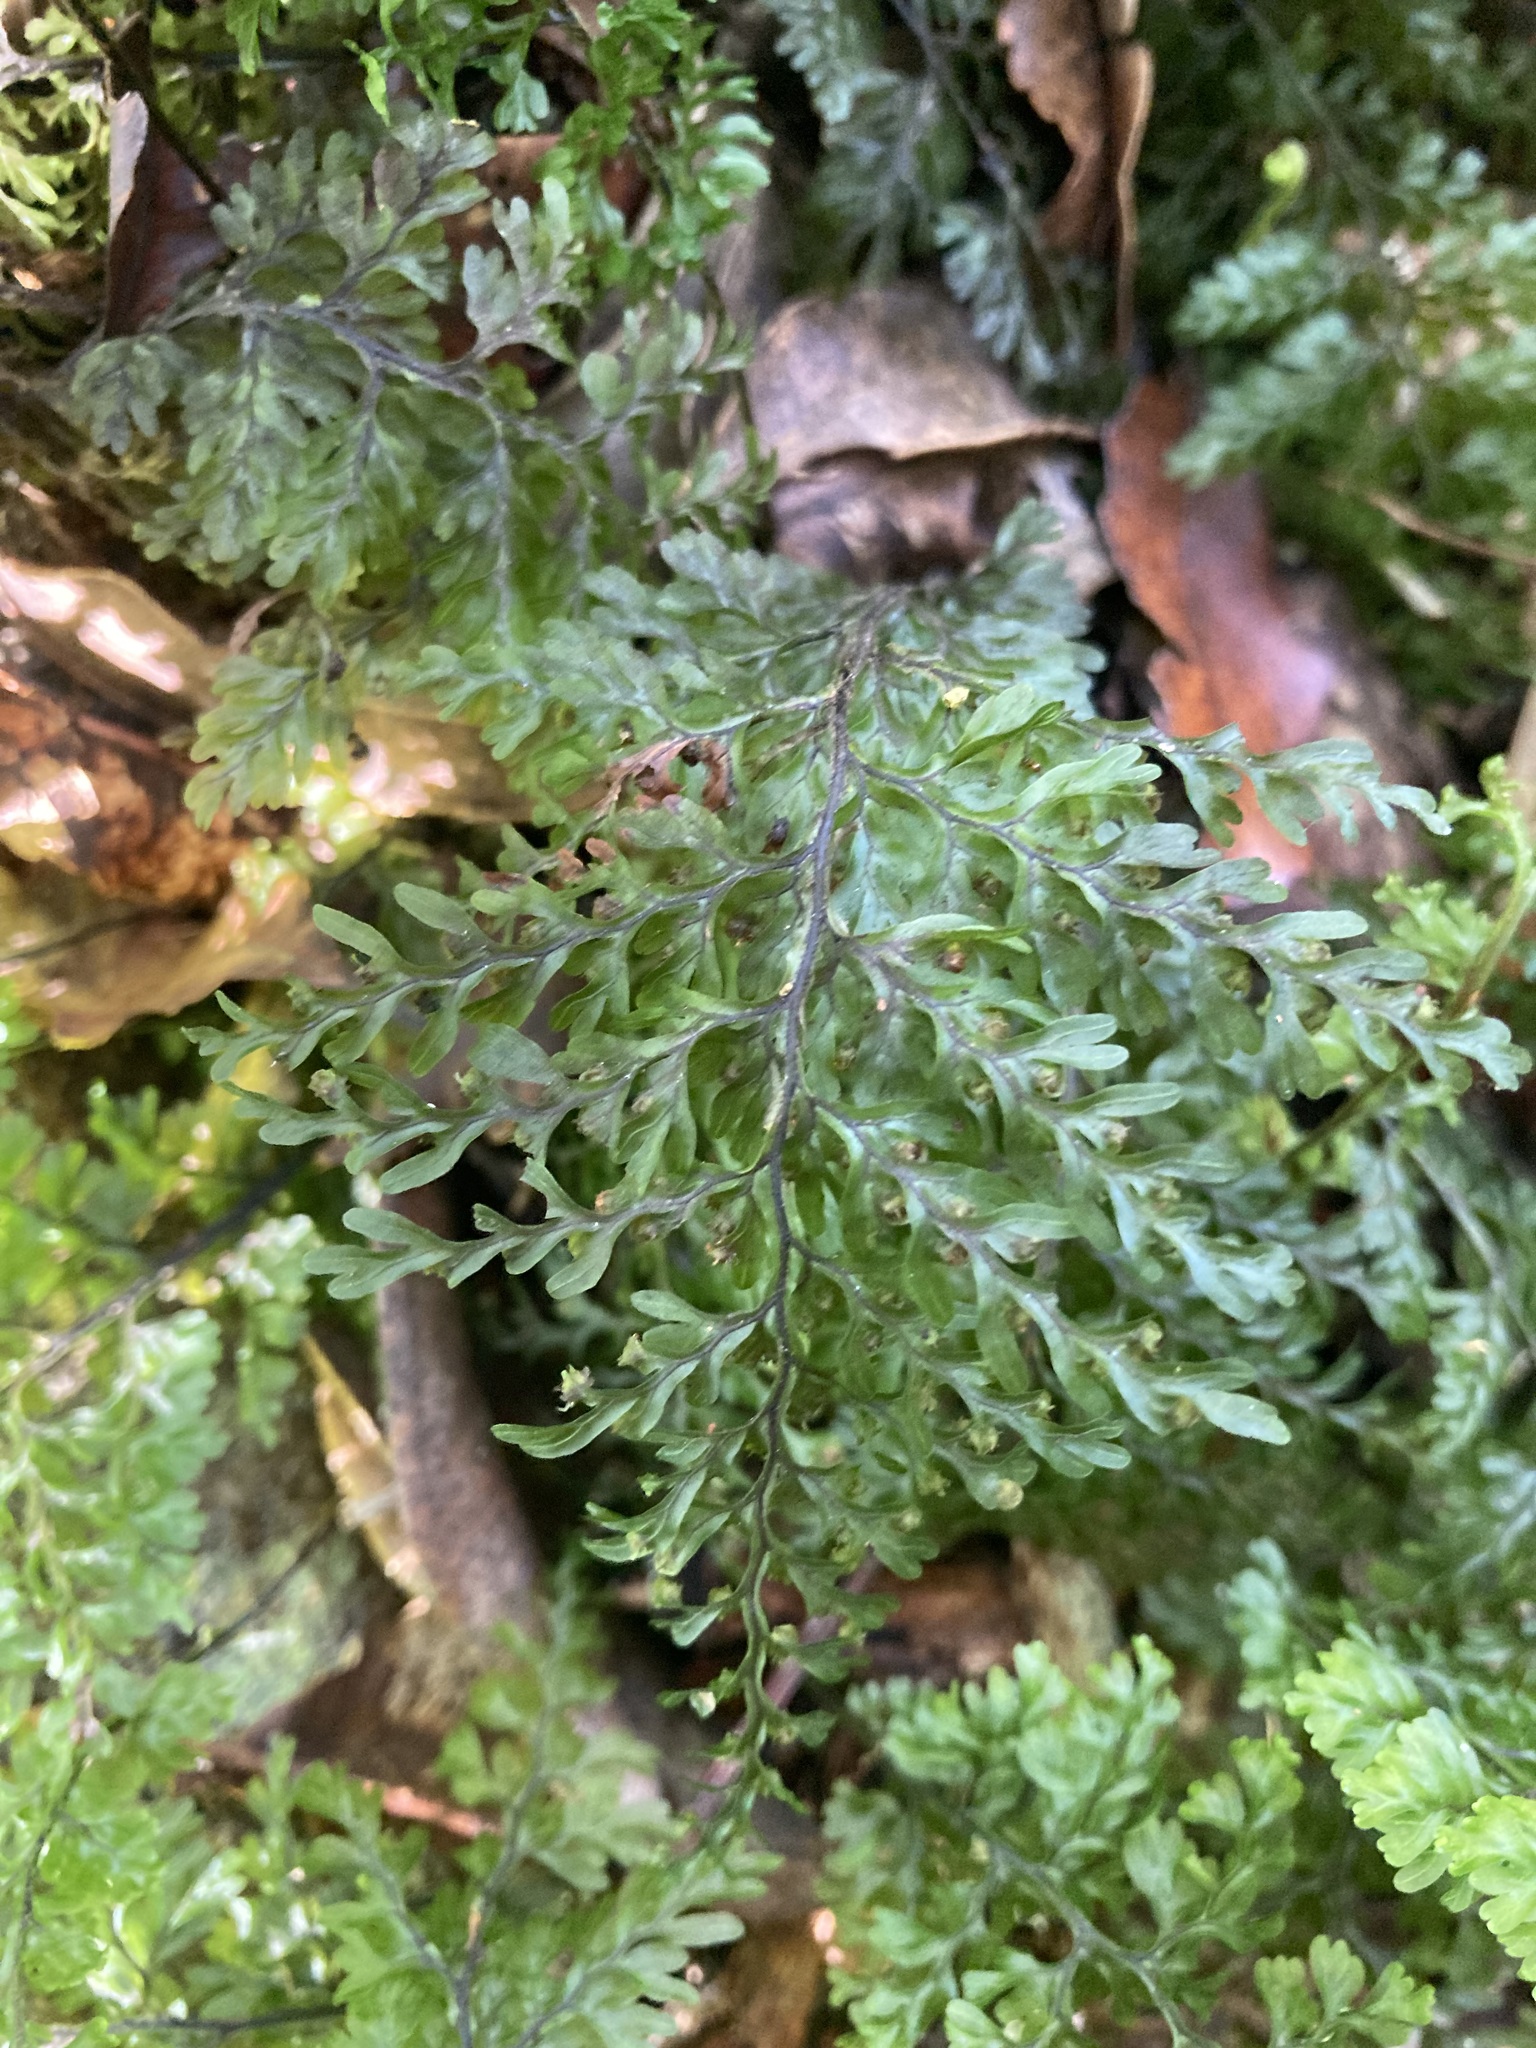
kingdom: Plantae
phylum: Tracheophyta
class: Polypodiopsida
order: Hymenophyllales
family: Hymenophyllaceae
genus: Hymenophyllum
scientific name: Hymenophyllum sanguinolentum
